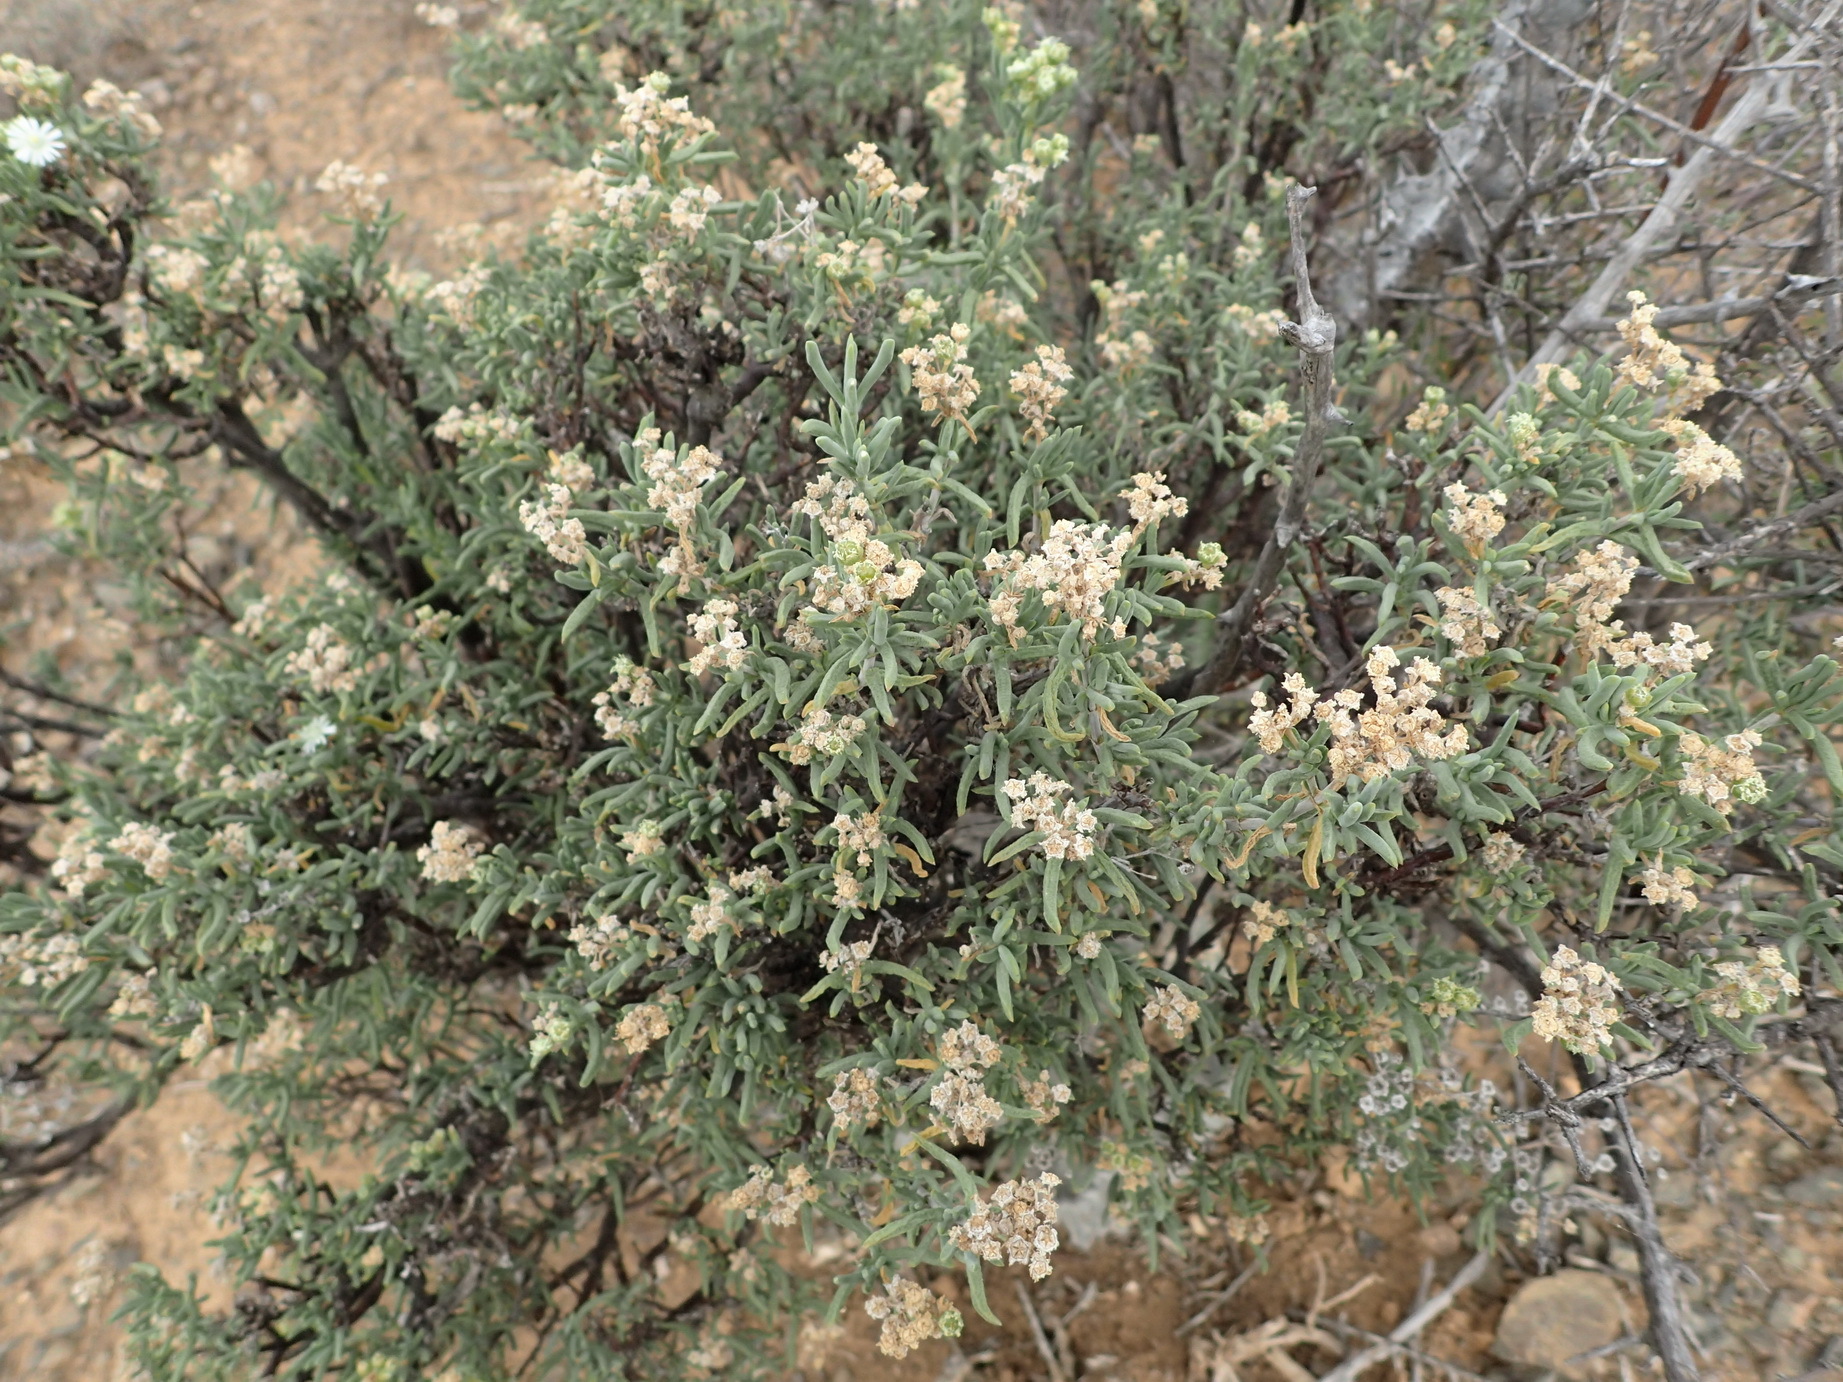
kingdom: Plantae
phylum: Tracheophyta
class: Magnoliopsida
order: Caryophyllales
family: Aizoaceae
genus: Delosperma
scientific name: Delosperma frutescens
